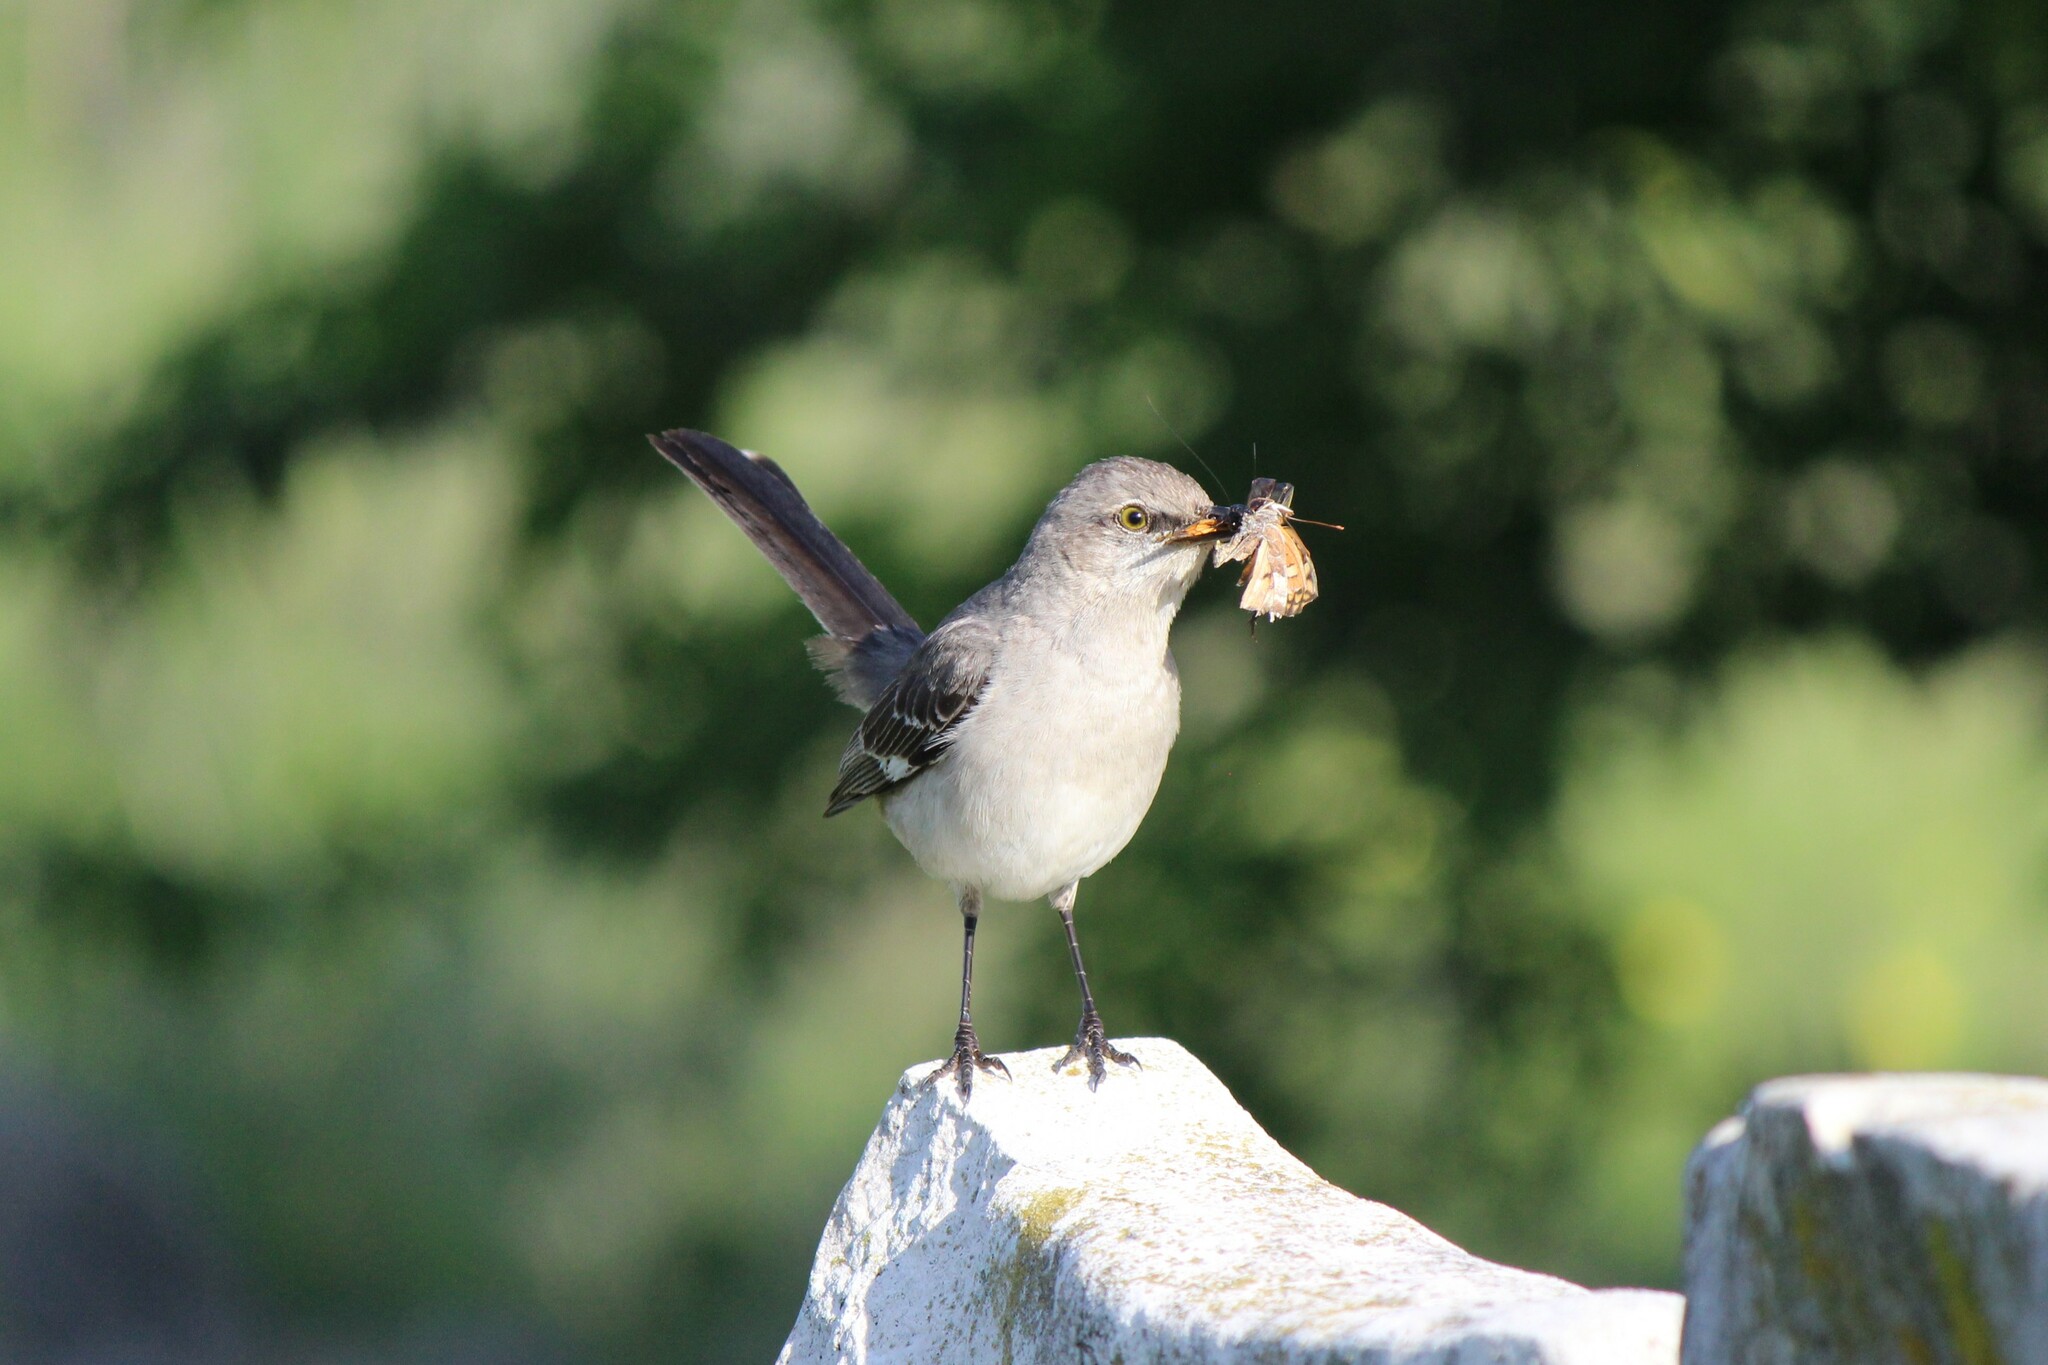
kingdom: Animalia
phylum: Chordata
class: Aves
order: Passeriformes
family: Mimidae
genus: Mimus
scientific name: Mimus polyglottos
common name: Northern mockingbird
